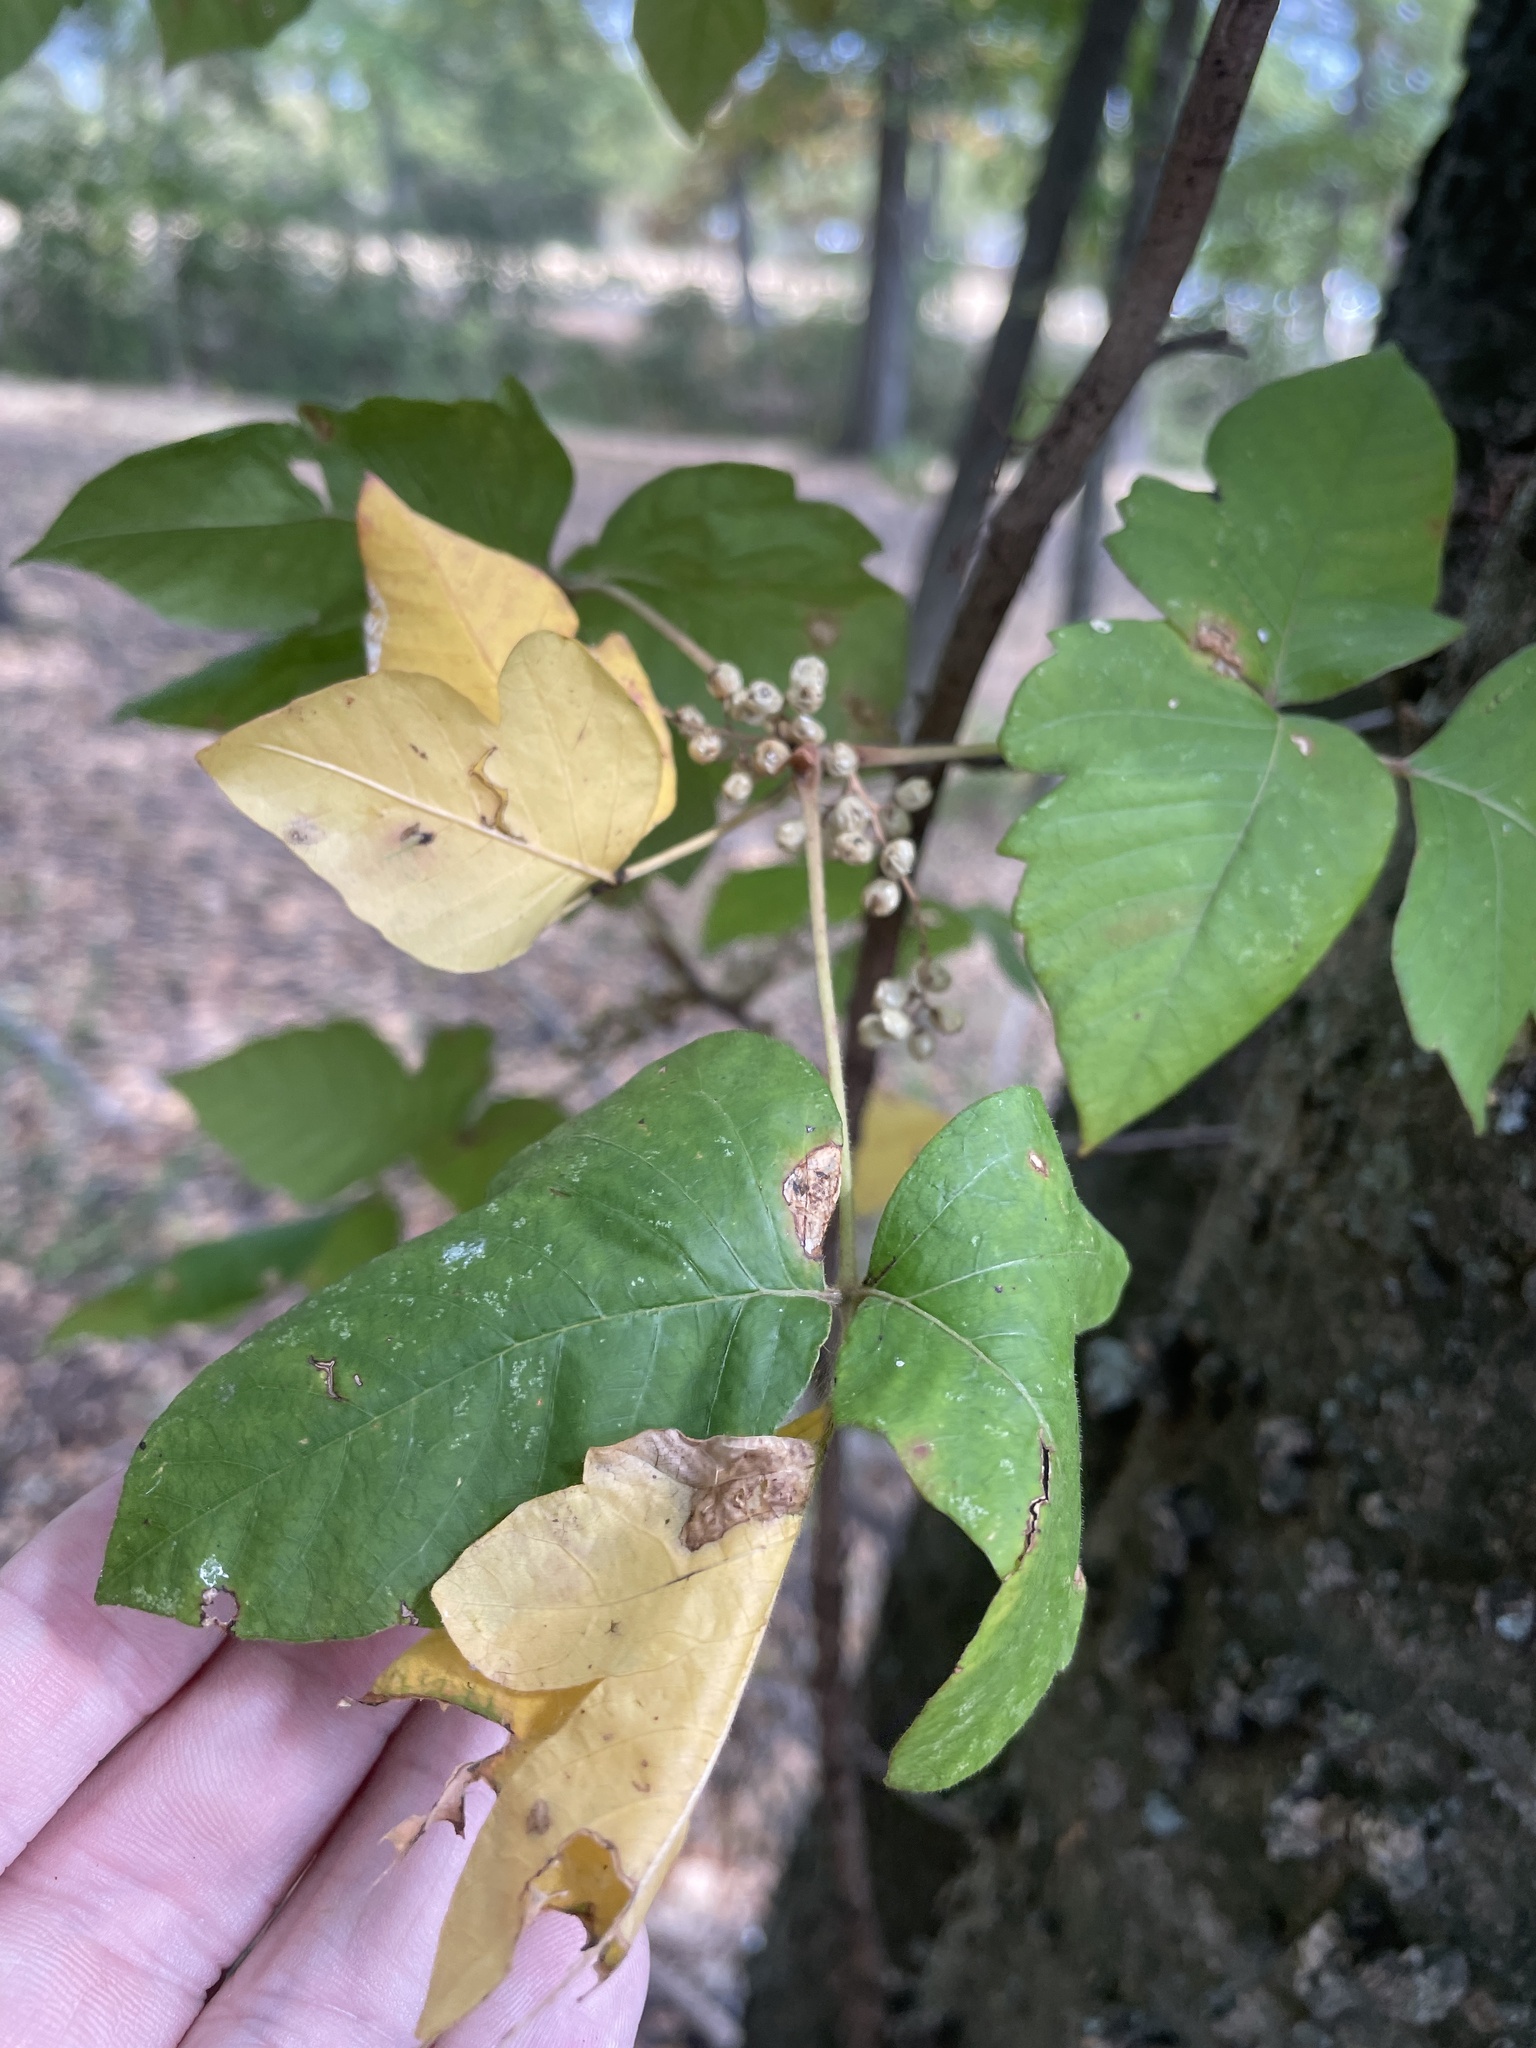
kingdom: Plantae
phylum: Tracheophyta
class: Magnoliopsida
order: Sapindales
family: Anacardiaceae
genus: Toxicodendron
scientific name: Toxicodendron radicans
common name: Poison ivy
